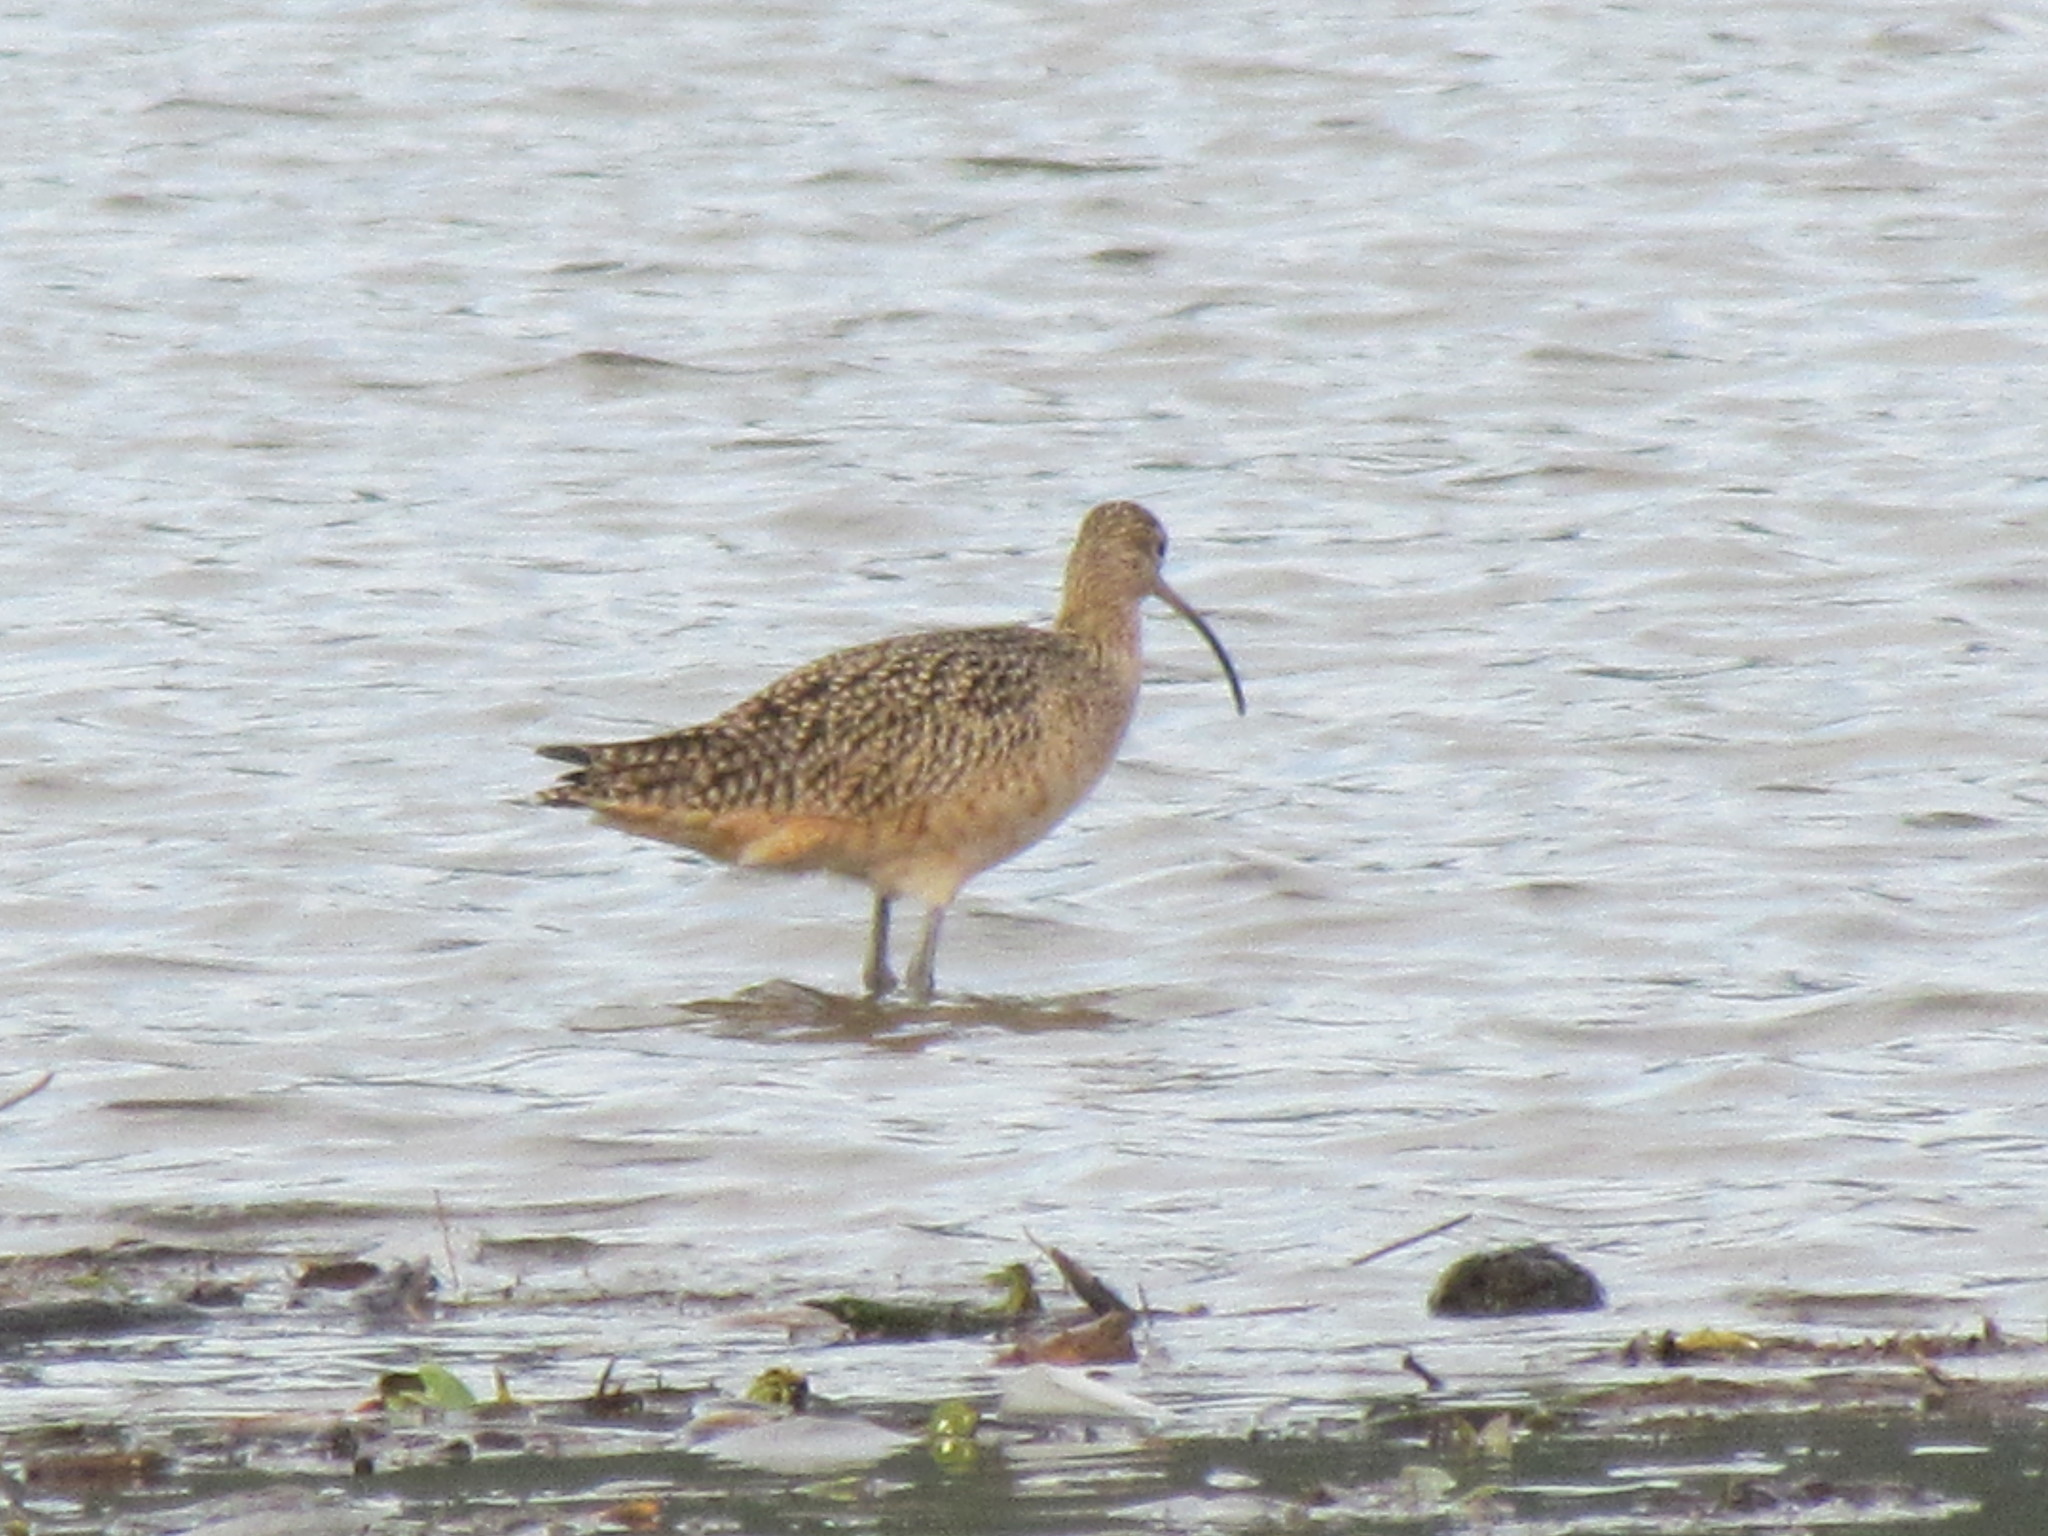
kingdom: Animalia
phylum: Chordata
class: Aves
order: Charadriiformes
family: Scolopacidae
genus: Numenius
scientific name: Numenius americanus
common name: Long-billed curlew
